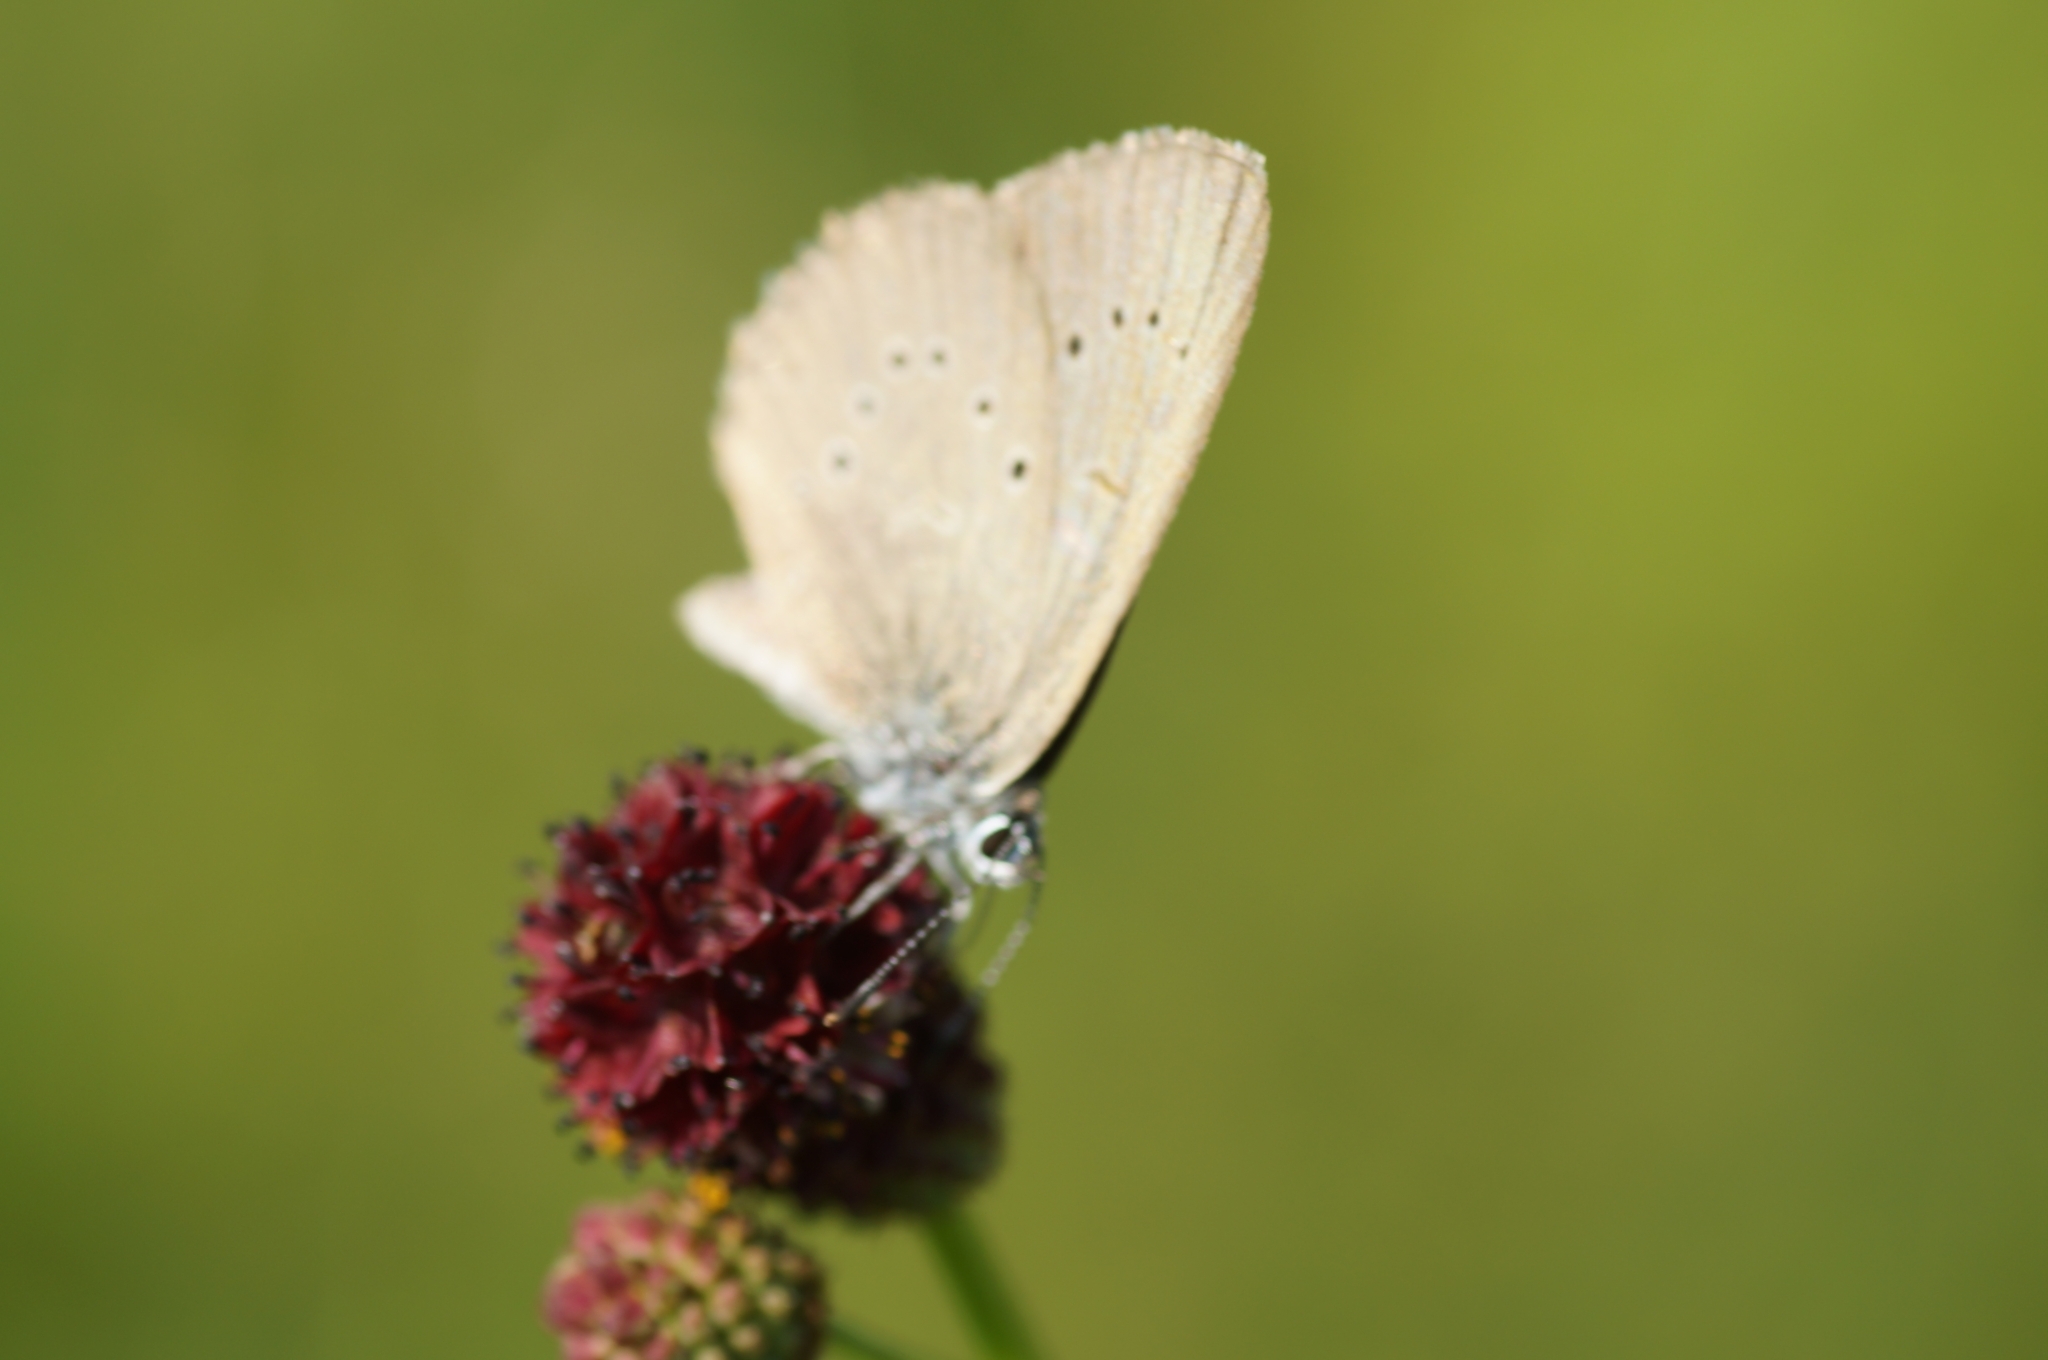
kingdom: Animalia
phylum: Arthropoda
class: Insecta
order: Lepidoptera
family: Lycaenidae
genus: Maculinea
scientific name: Maculinea nausithous
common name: Dusky large blue
